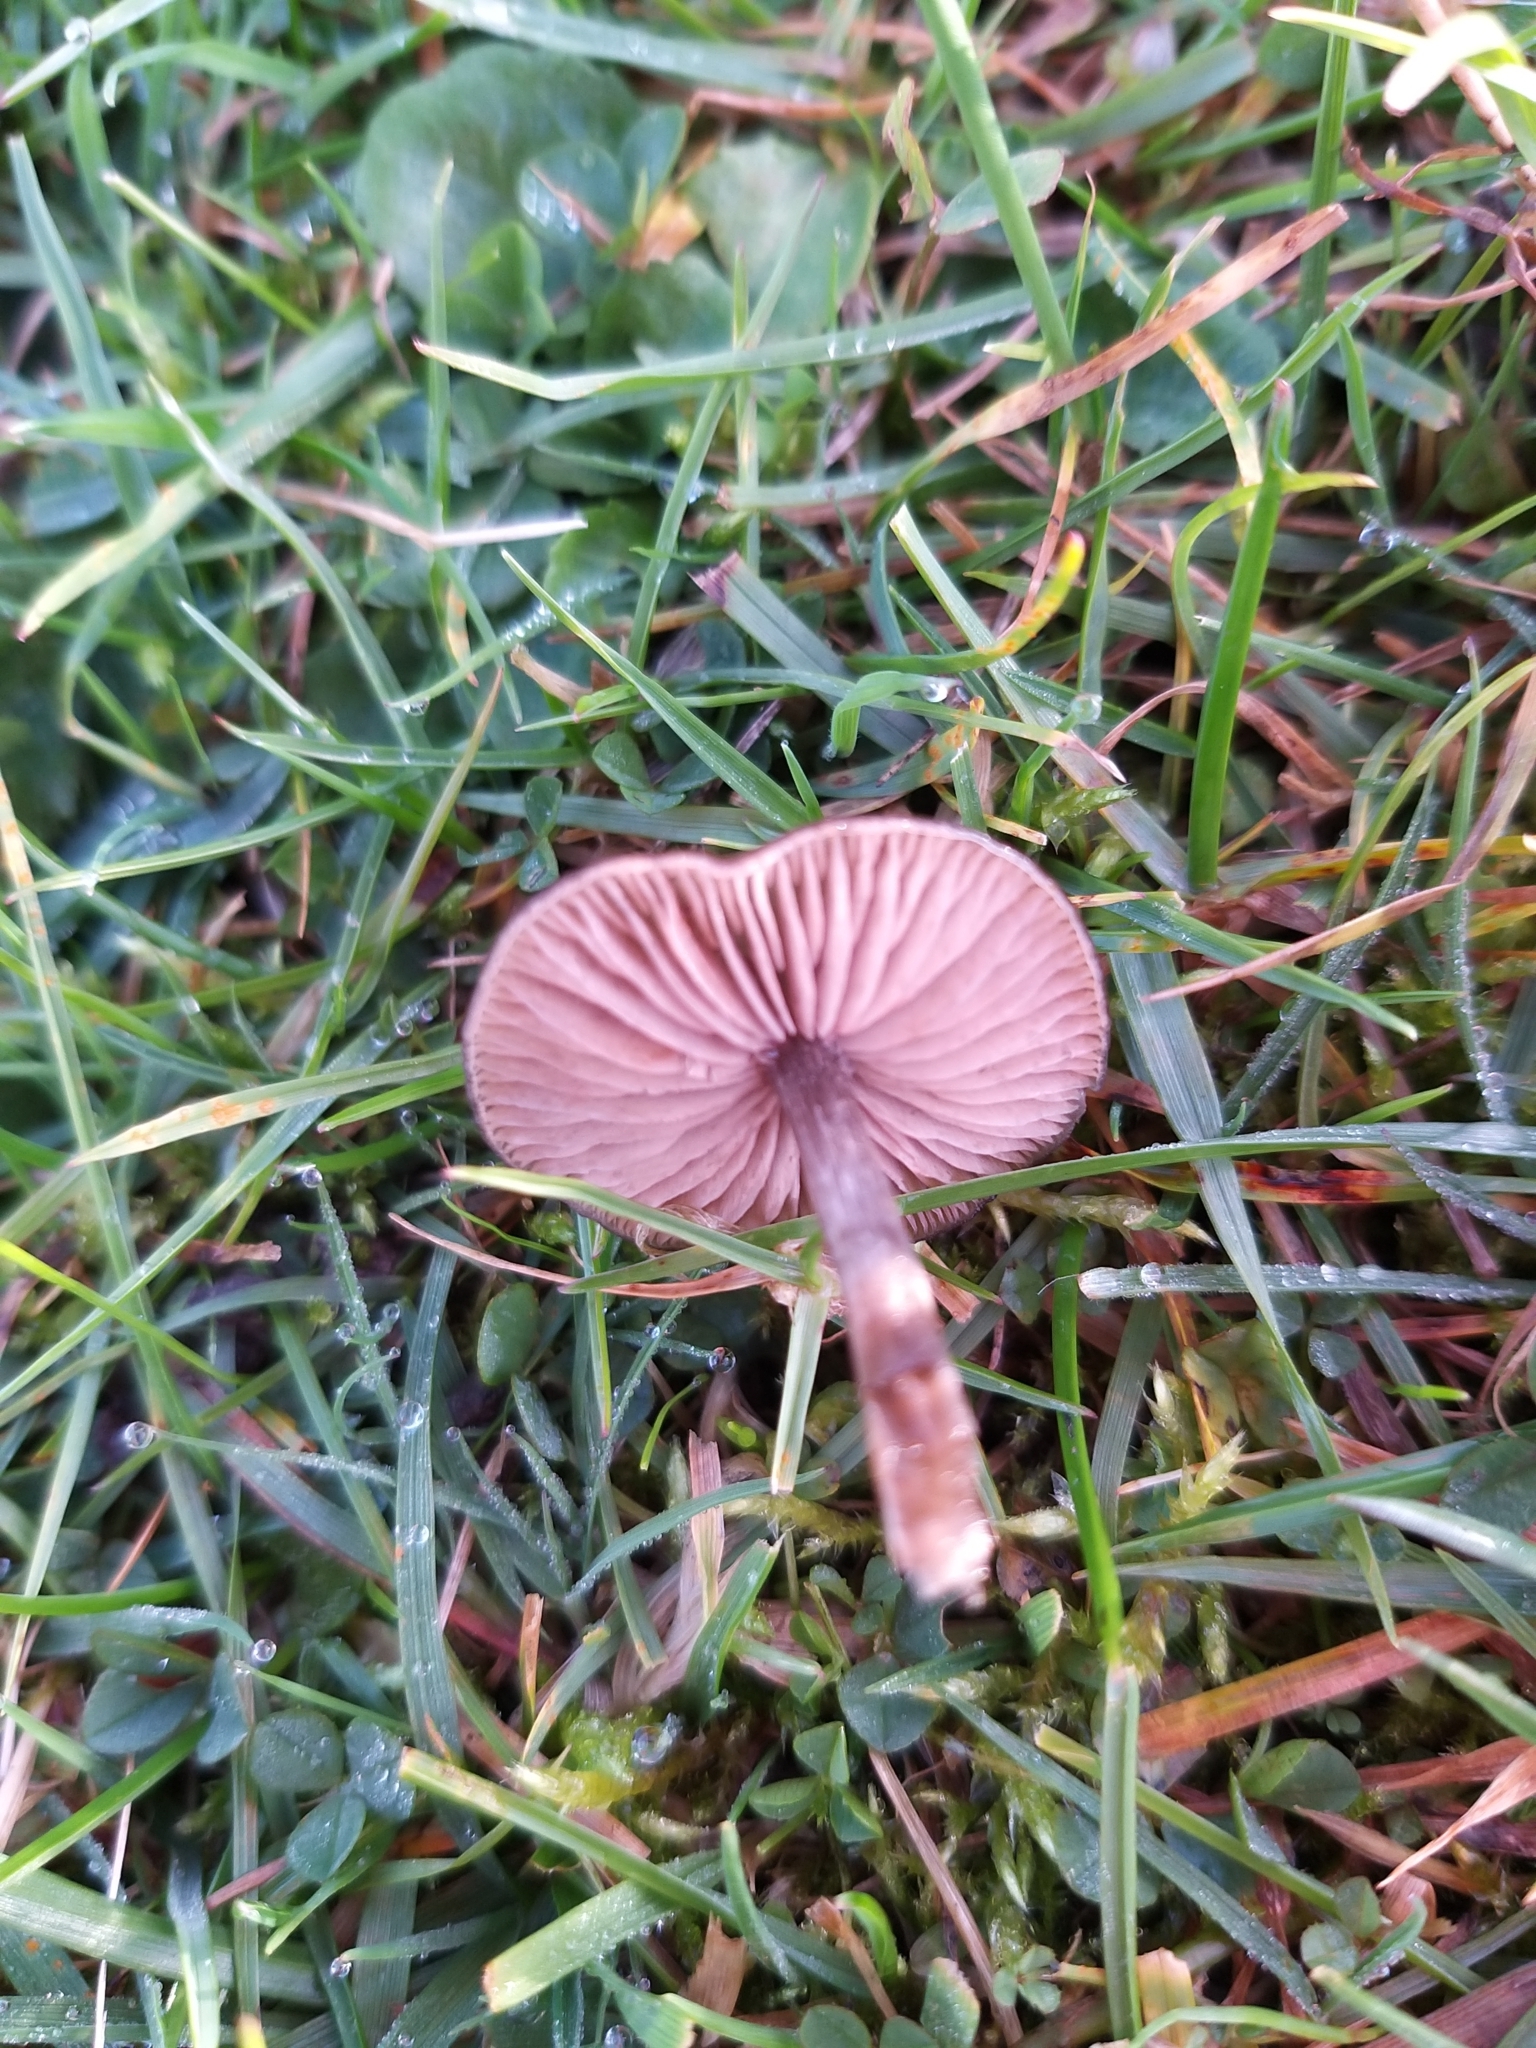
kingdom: Fungi
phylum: Basidiomycota
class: Agaricomycetes
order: Agaricales
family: Entolomataceae
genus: Entoloma
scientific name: Entoloma sericeum
